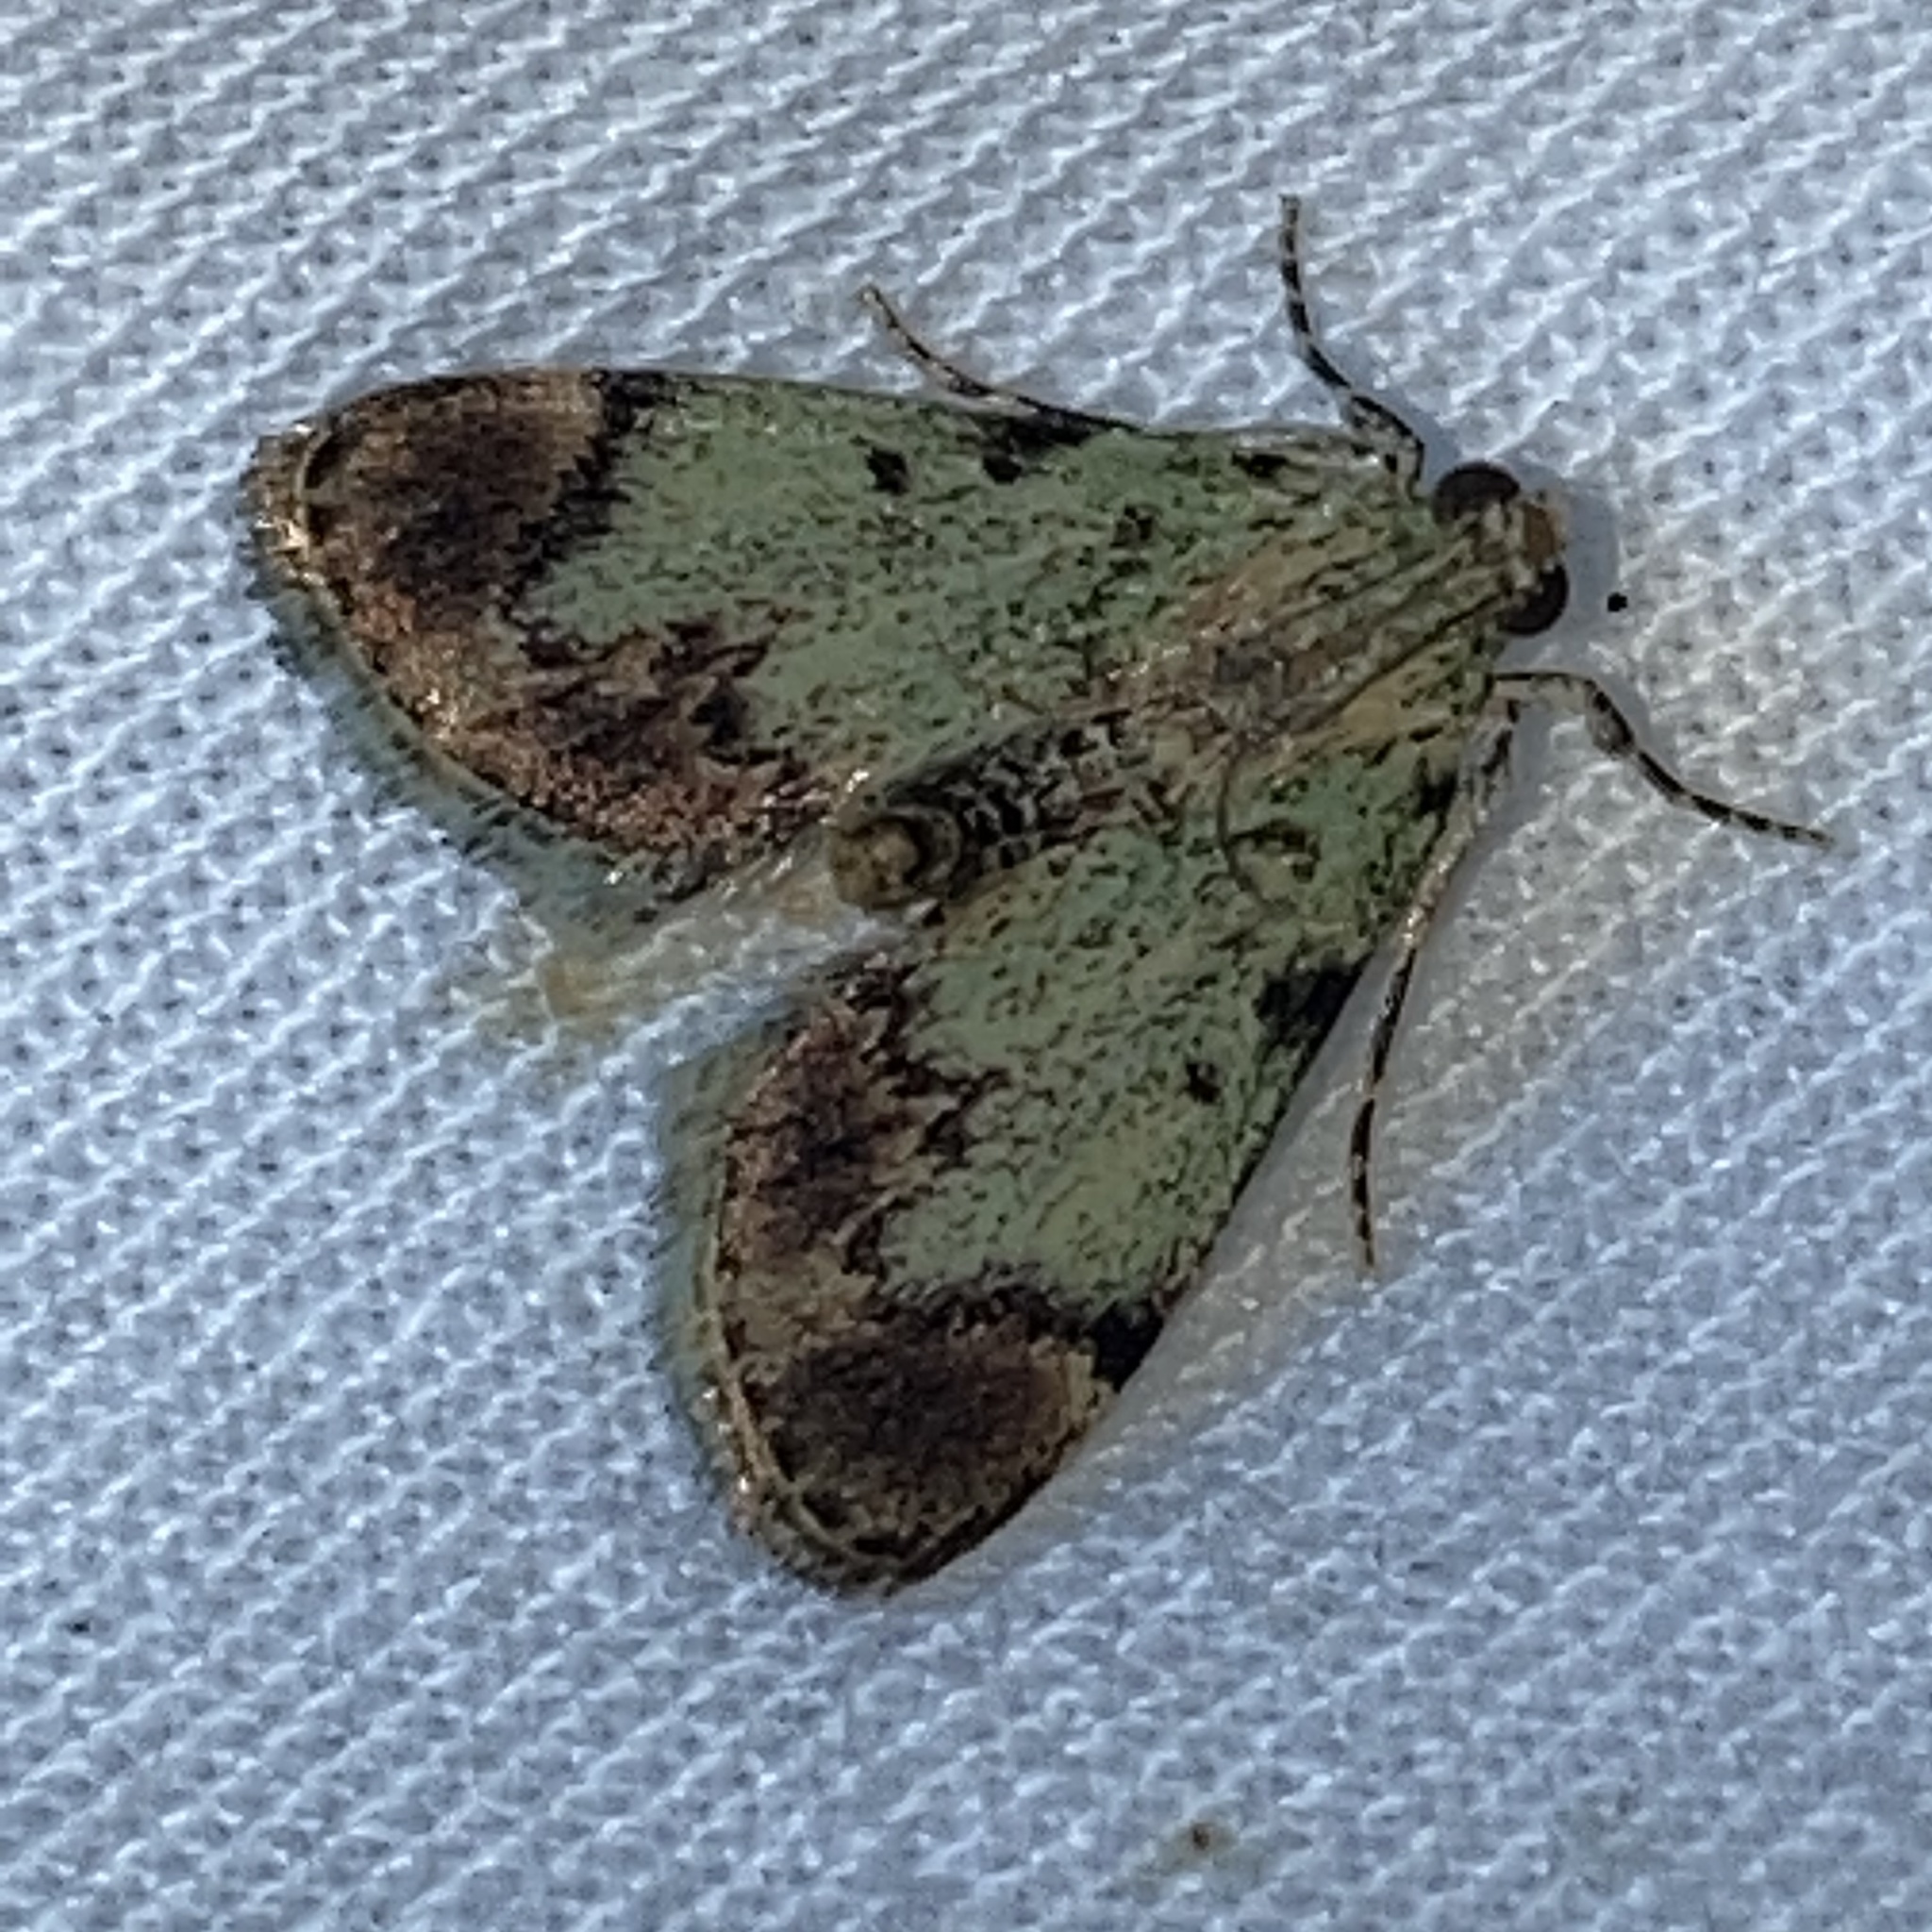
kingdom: Animalia
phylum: Arthropoda
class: Insecta
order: Lepidoptera
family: Pyralidae
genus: Epipaschia
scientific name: Epipaschia superatalis
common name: Dimorphic macalla moth
